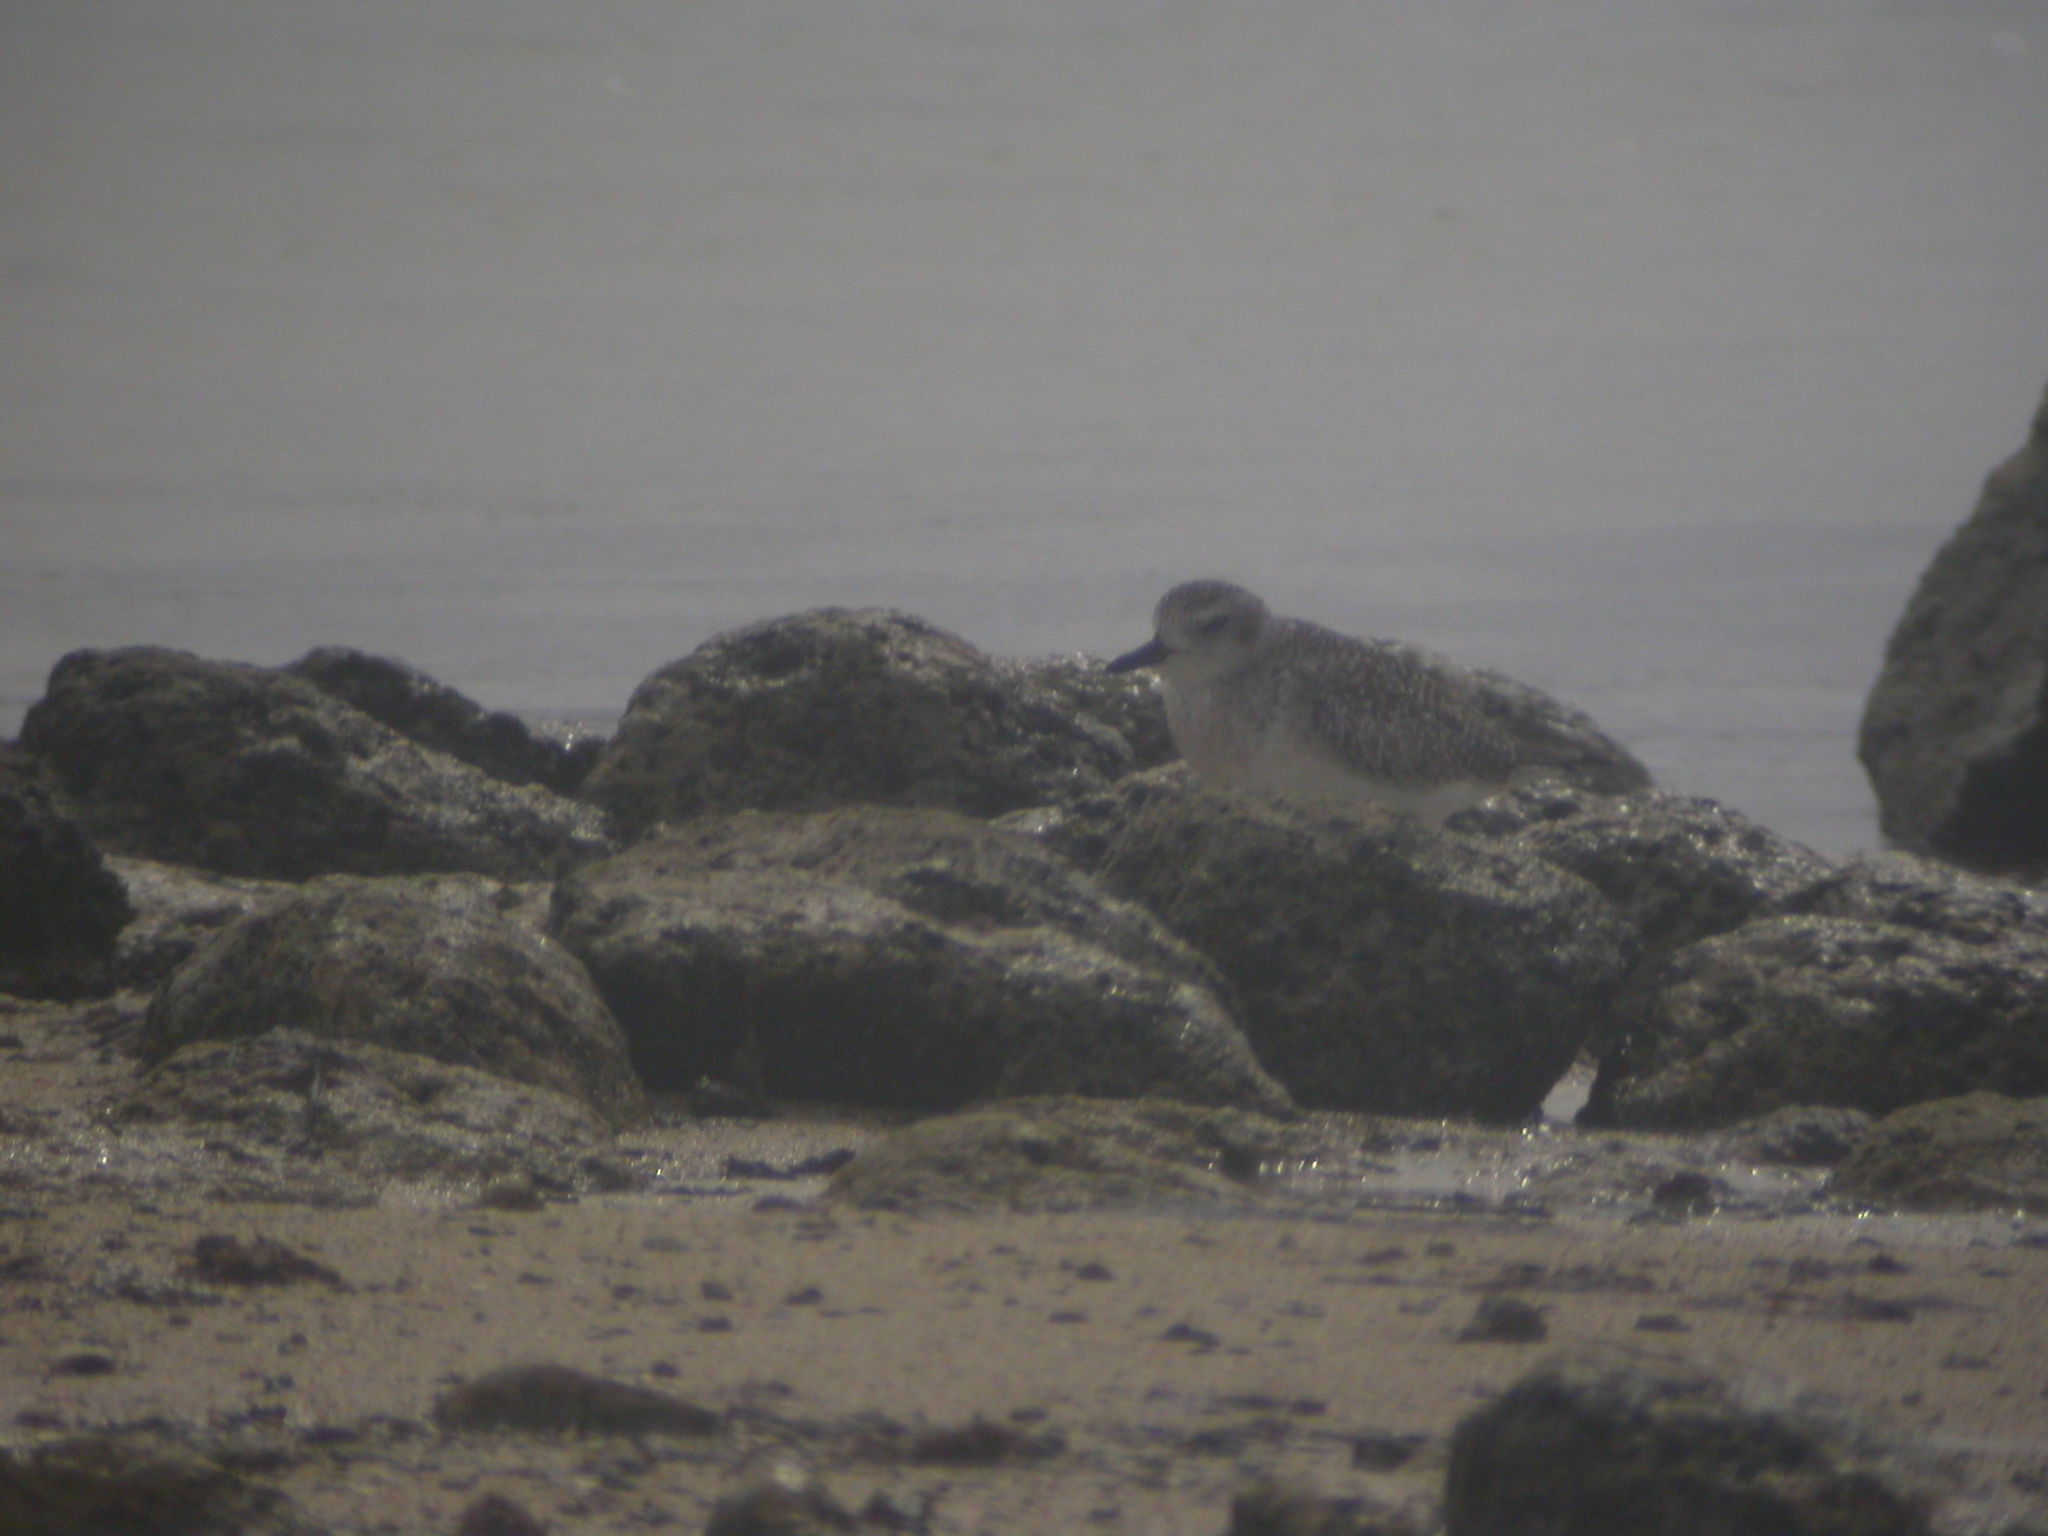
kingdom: Animalia
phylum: Chordata
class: Aves
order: Charadriiformes
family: Charadriidae
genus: Pluvialis
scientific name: Pluvialis squatarola
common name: Grey plover
